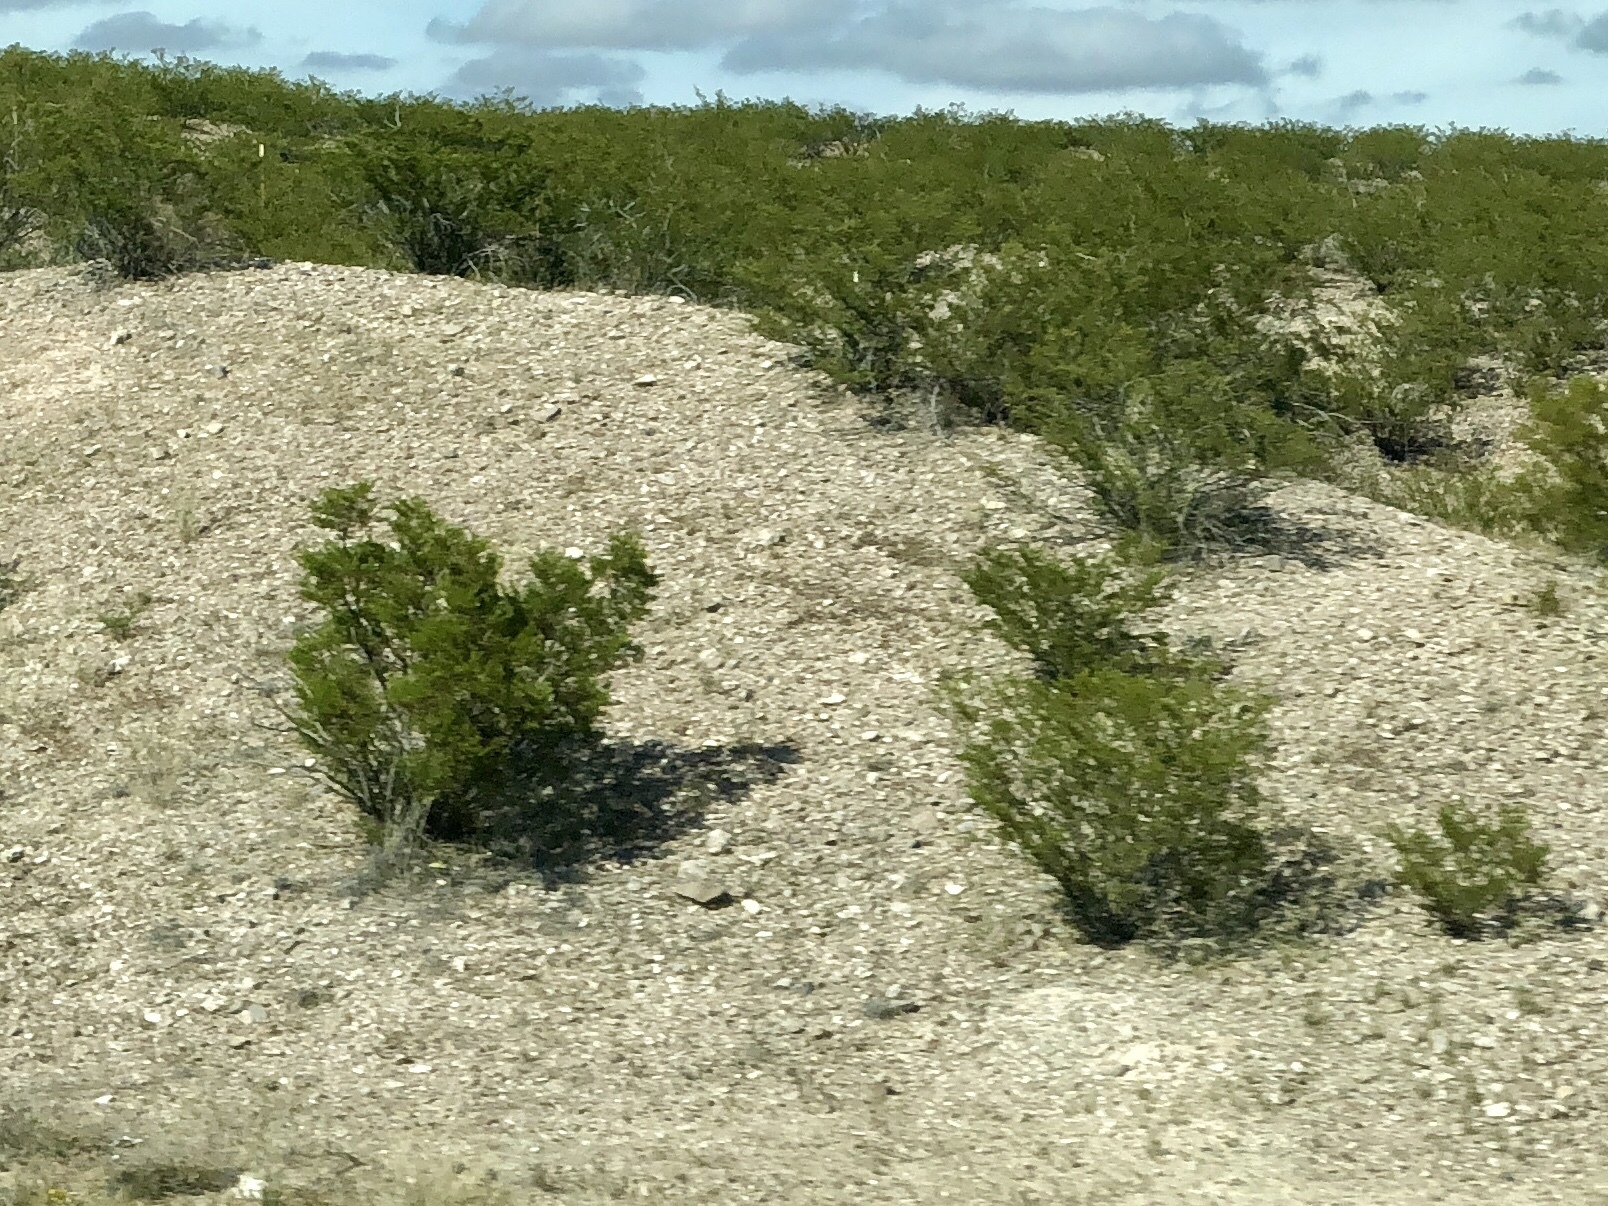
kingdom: Plantae
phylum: Tracheophyta
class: Magnoliopsida
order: Zygophyllales
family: Zygophyllaceae
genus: Larrea
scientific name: Larrea tridentata
